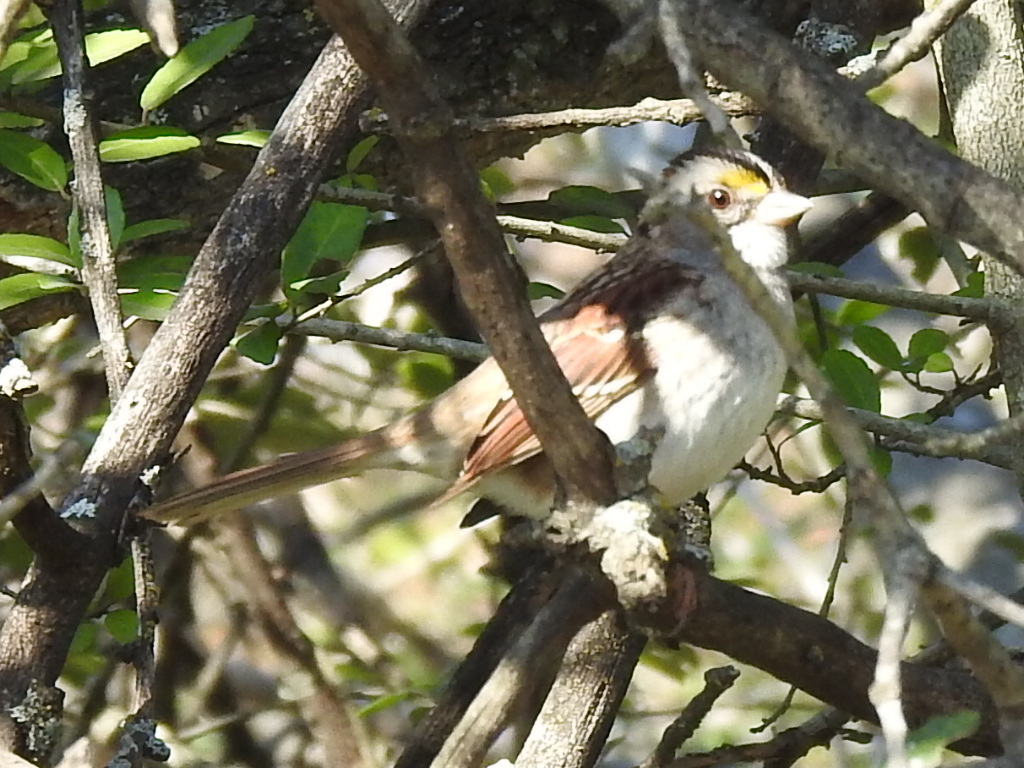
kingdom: Animalia
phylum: Chordata
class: Aves
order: Passeriformes
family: Passerellidae
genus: Zonotrichia
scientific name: Zonotrichia albicollis
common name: White-throated sparrow
